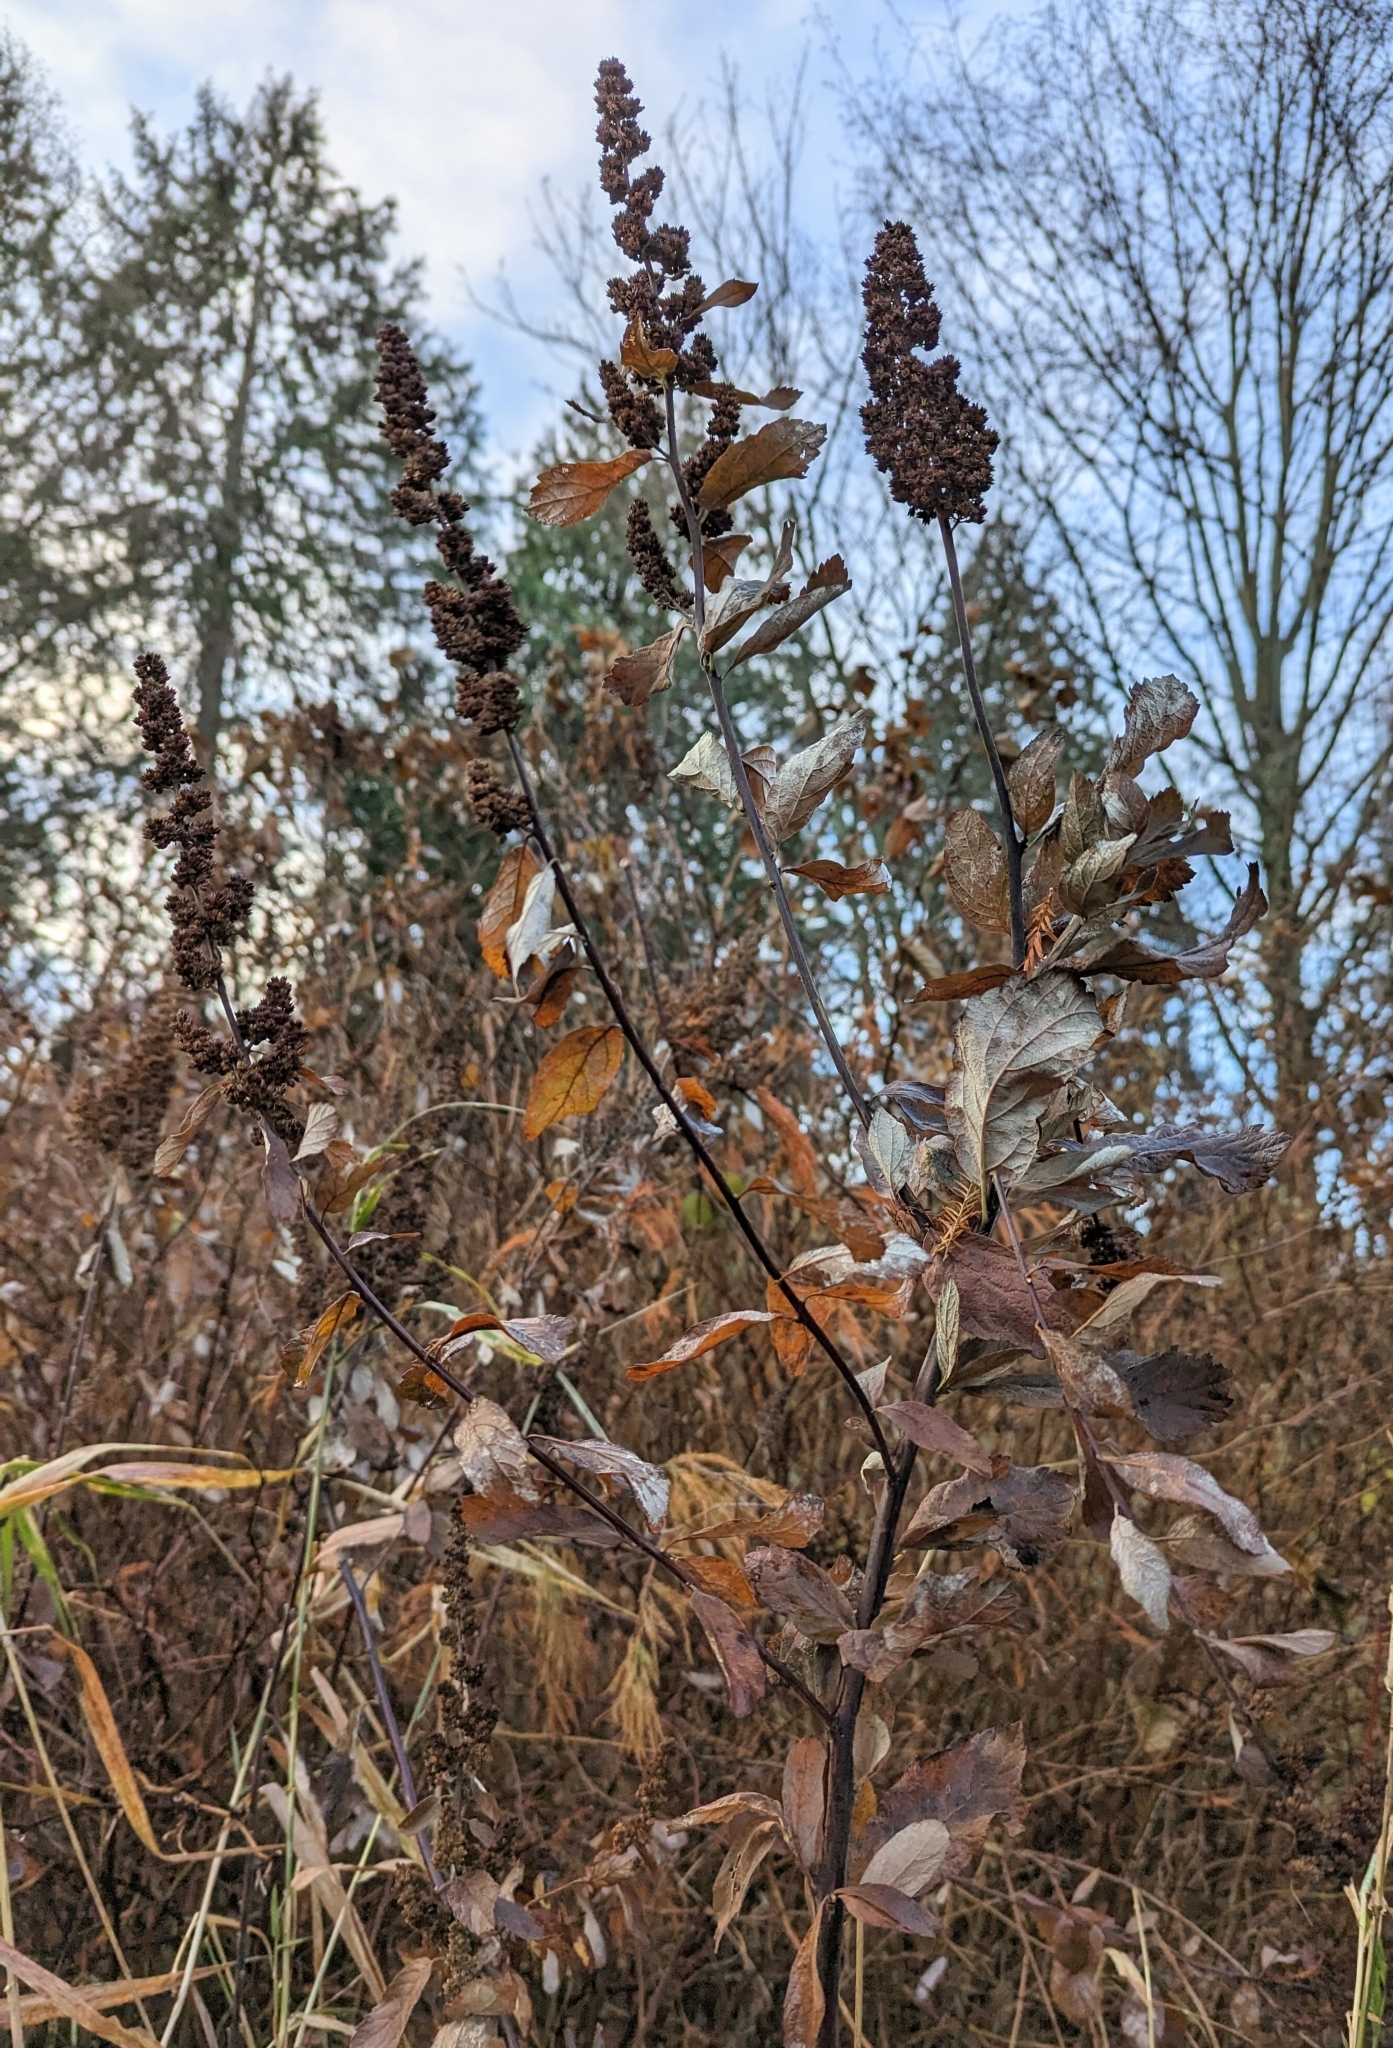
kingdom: Plantae
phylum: Tracheophyta
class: Magnoliopsida
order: Rosales
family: Rosaceae
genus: Spiraea
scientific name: Spiraea douglasii
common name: Steeplebush
